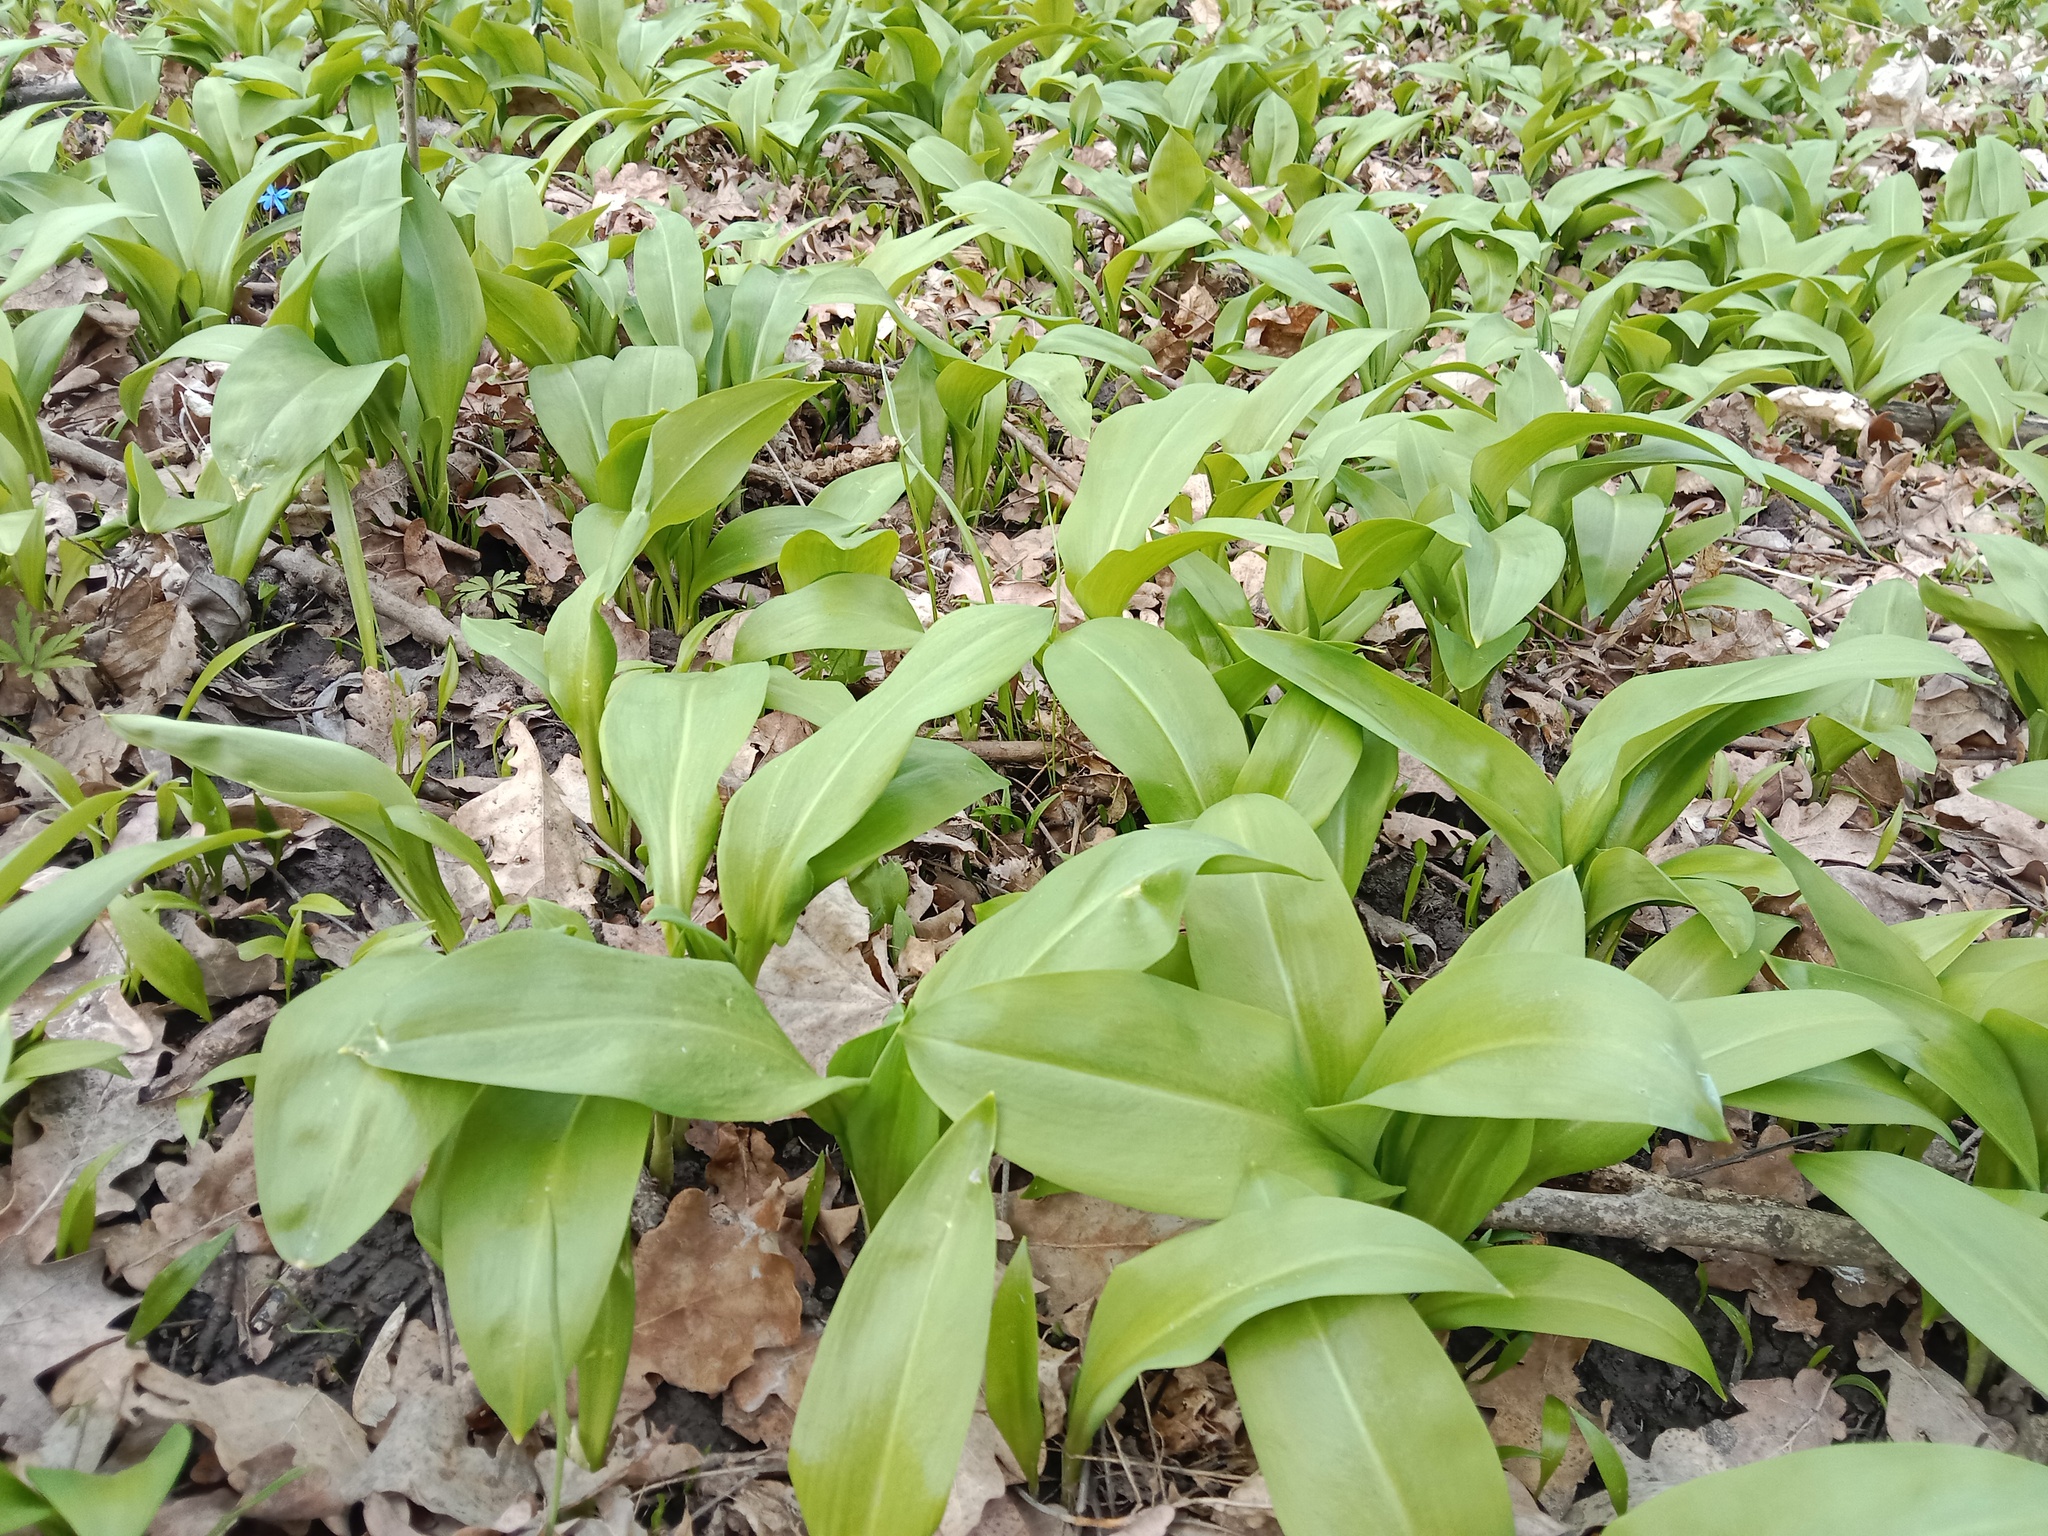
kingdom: Plantae
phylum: Tracheophyta
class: Liliopsida
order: Asparagales
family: Amaryllidaceae
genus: Allium
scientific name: Allium ursinum
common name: Ramsons
